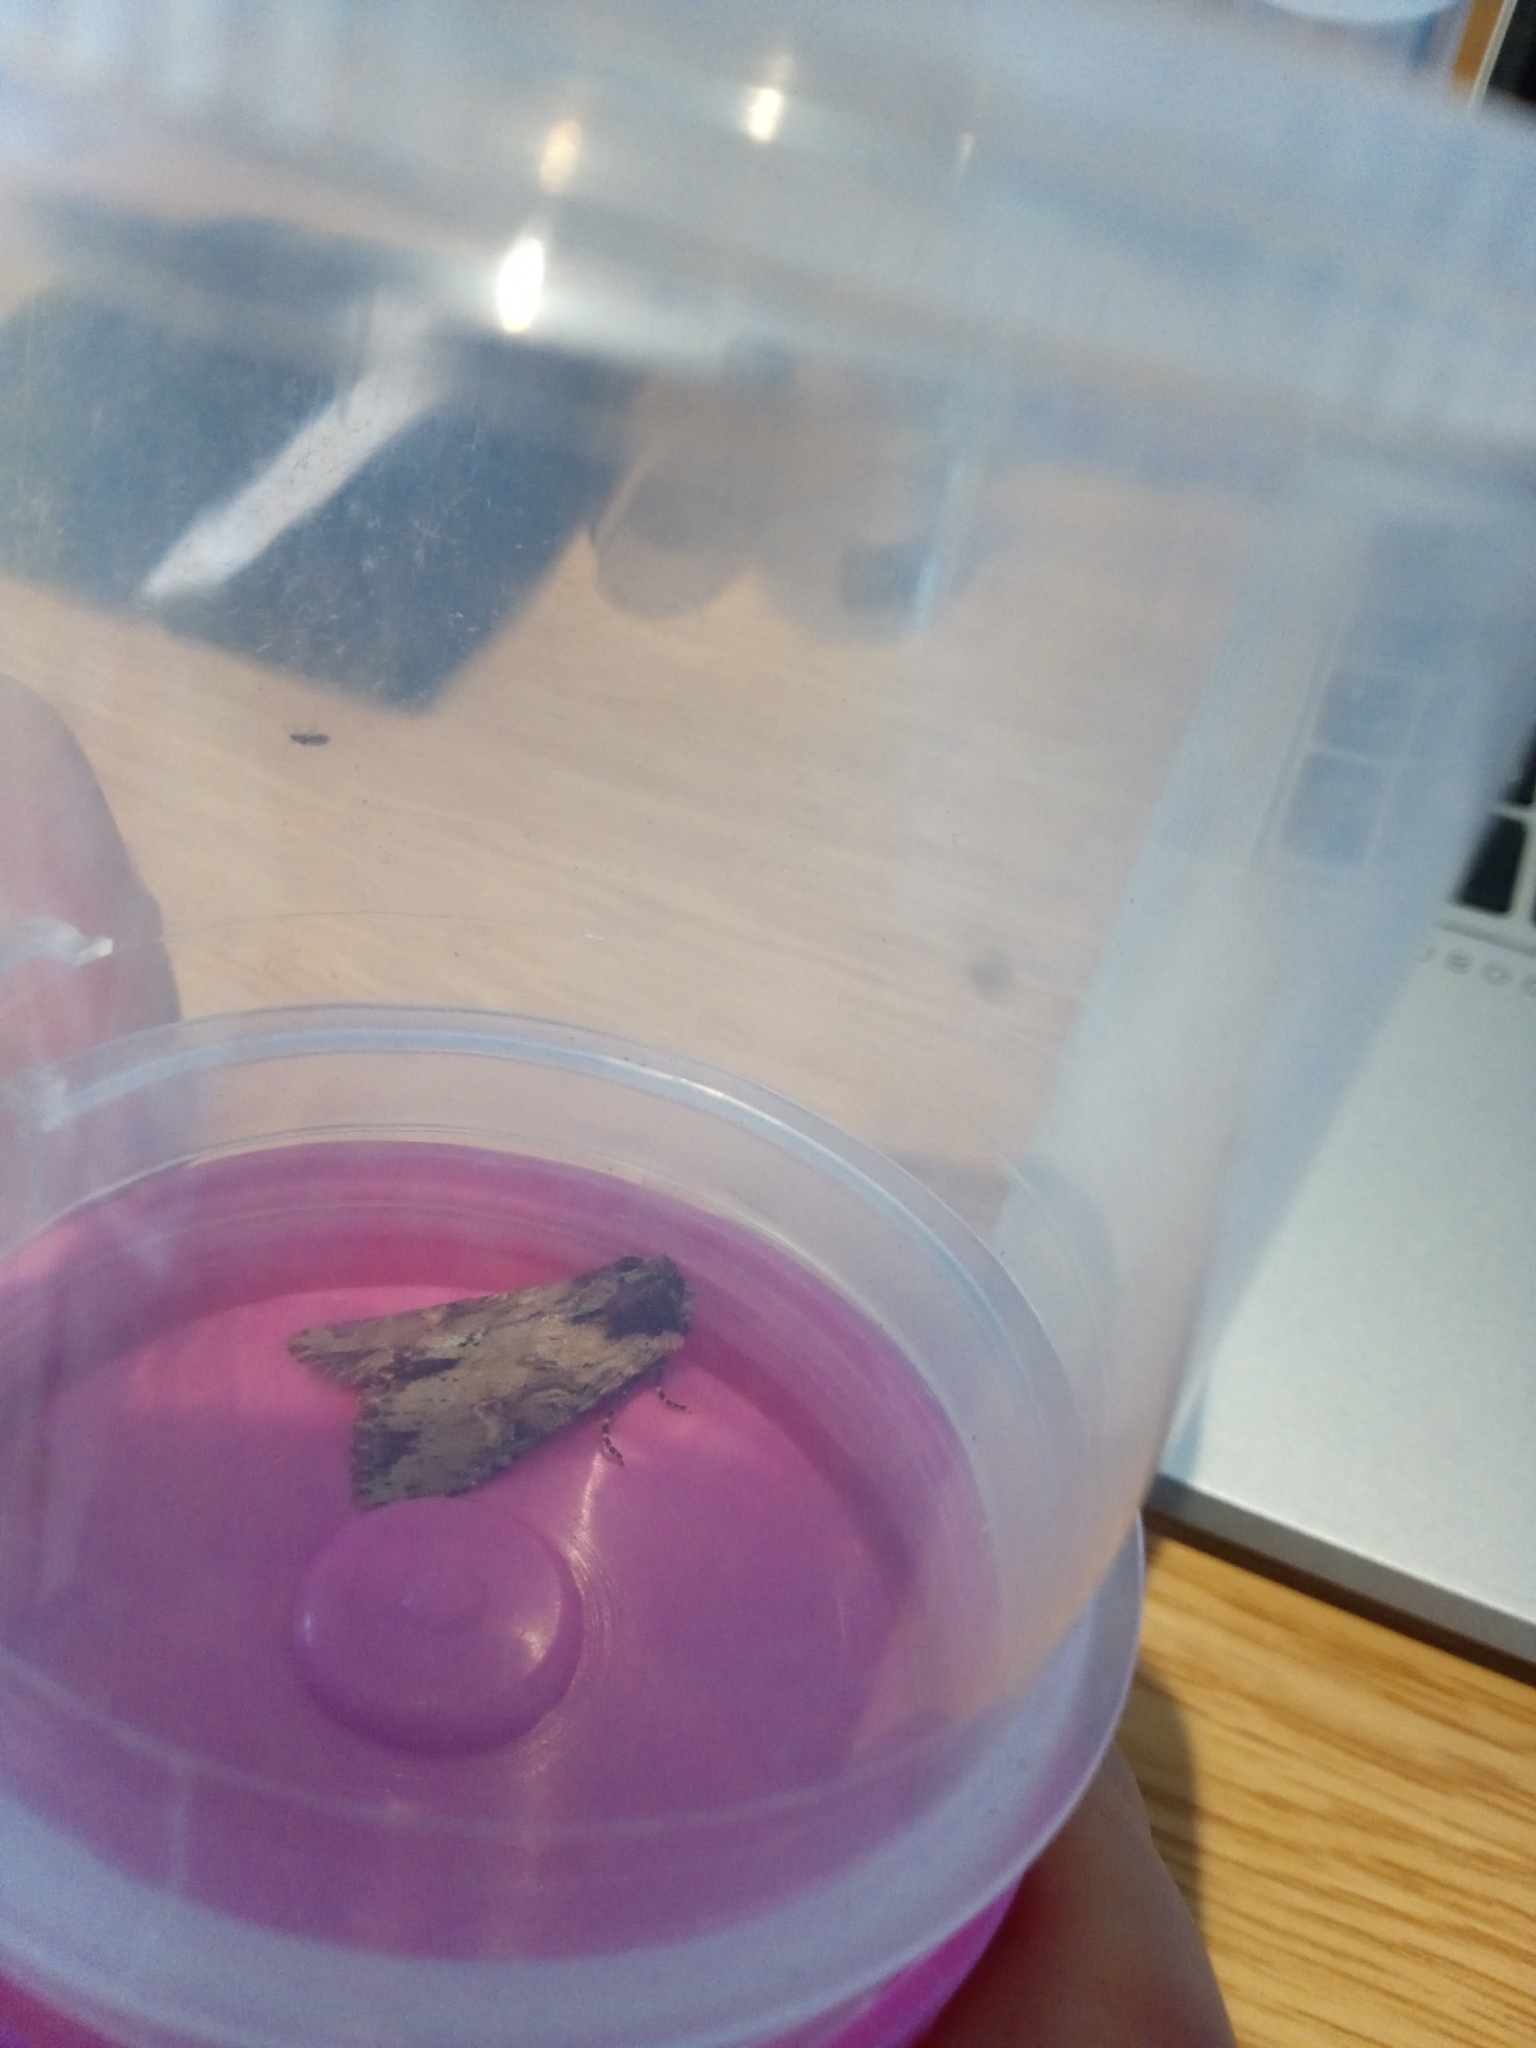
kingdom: Animalia
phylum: Arthropoda
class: Insecta
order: Lepidoptera
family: Noctuidae
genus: Apamea
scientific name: Apamea crenata
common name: Clouded-bordered brindle
